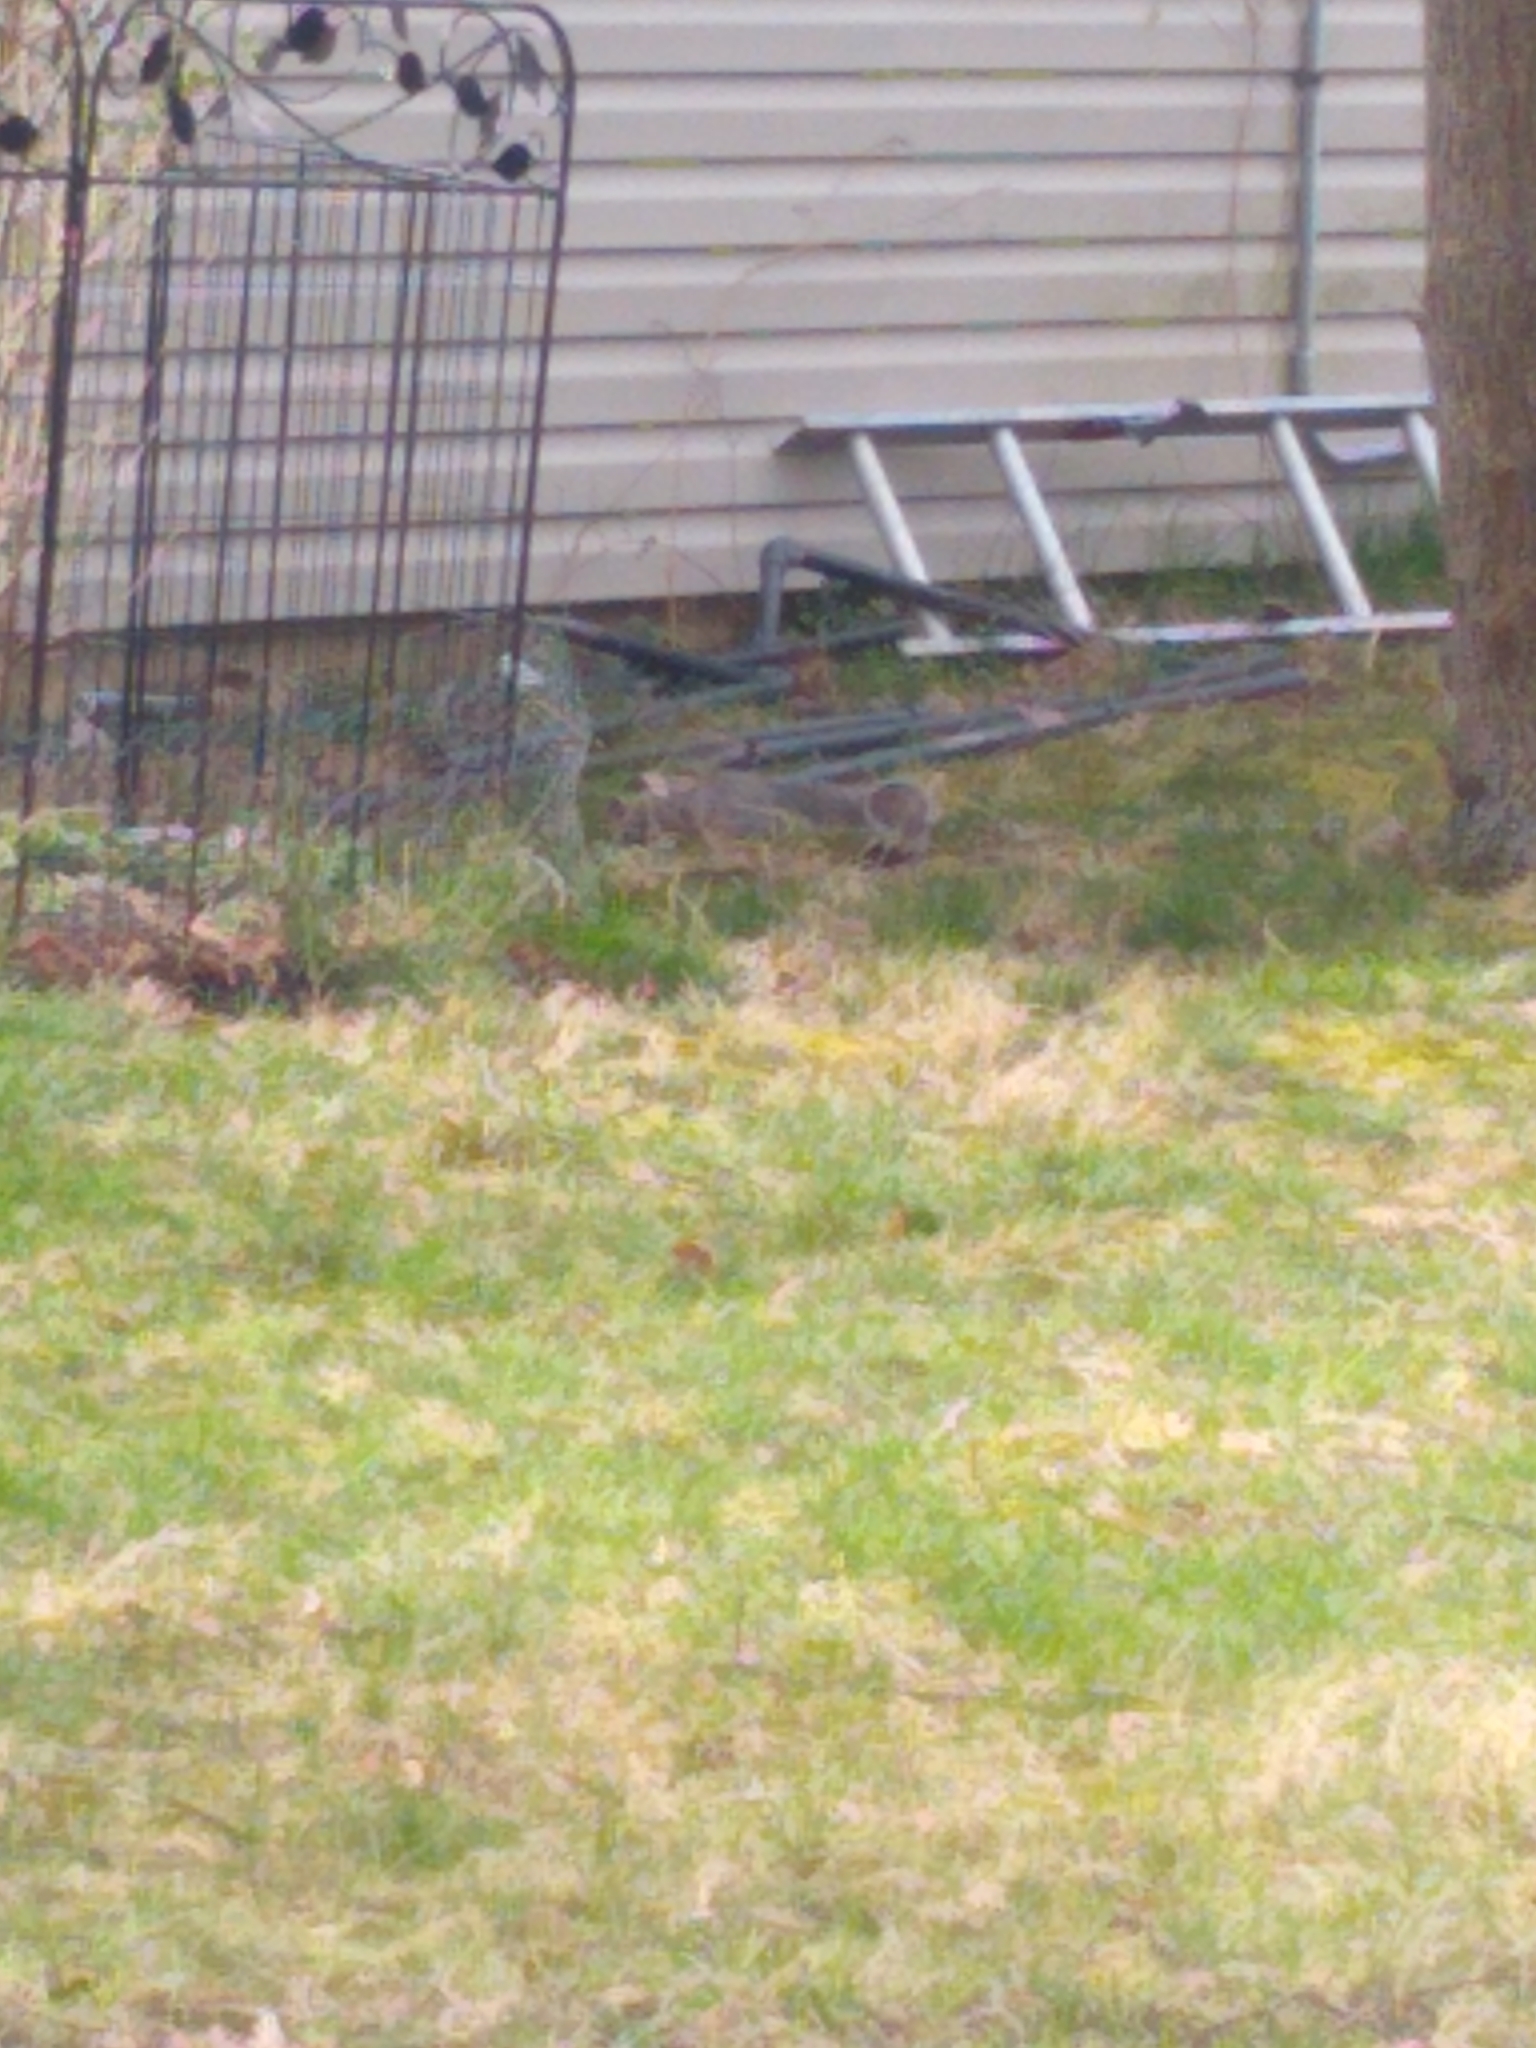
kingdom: Animalia
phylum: Chordata
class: Mammalia
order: Rodentia
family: Sciuridae
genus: Sciurus
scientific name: Sciurus carolinensis
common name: Eastern gray squirrel
